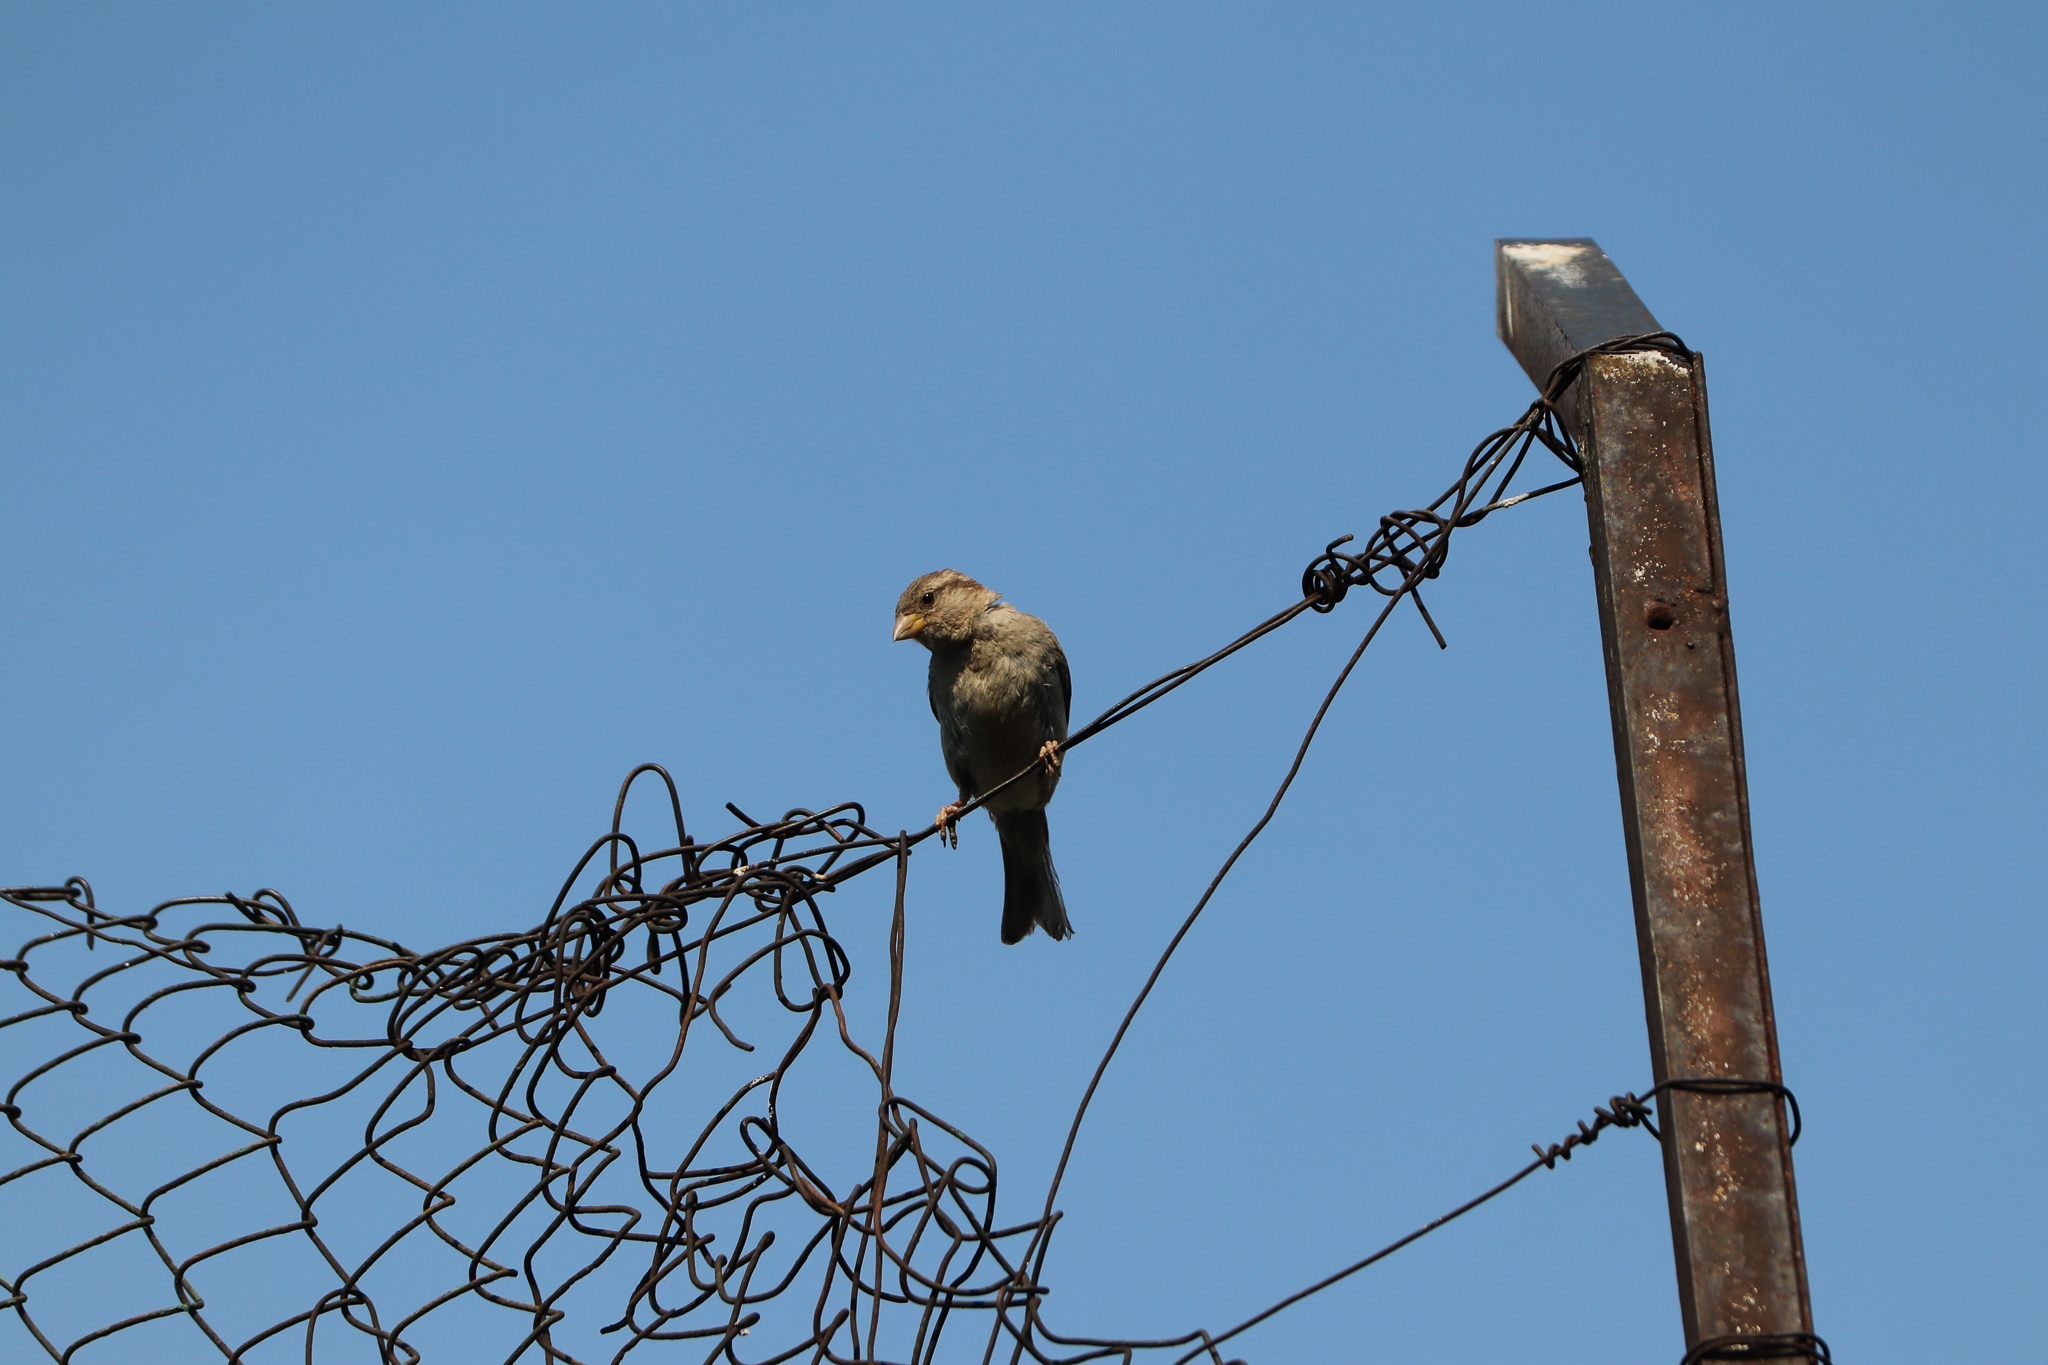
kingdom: Animalia
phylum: Chordata
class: Aves
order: Passeriformes
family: Passeridae
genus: Passer
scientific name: Passer domesticus
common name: House sparrow
